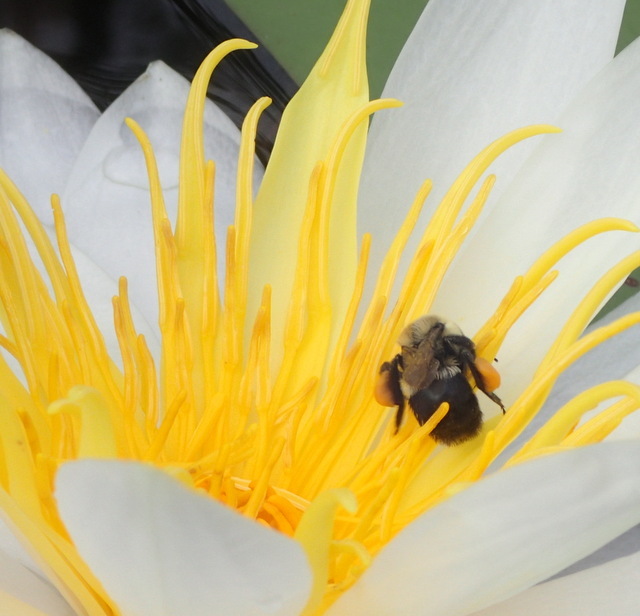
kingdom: Animalia
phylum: Arthropoda
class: Insecta
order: Hymenoptera
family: Apidae
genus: Bombus
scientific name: Bombus impatiens
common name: Common eastern bumble bee
